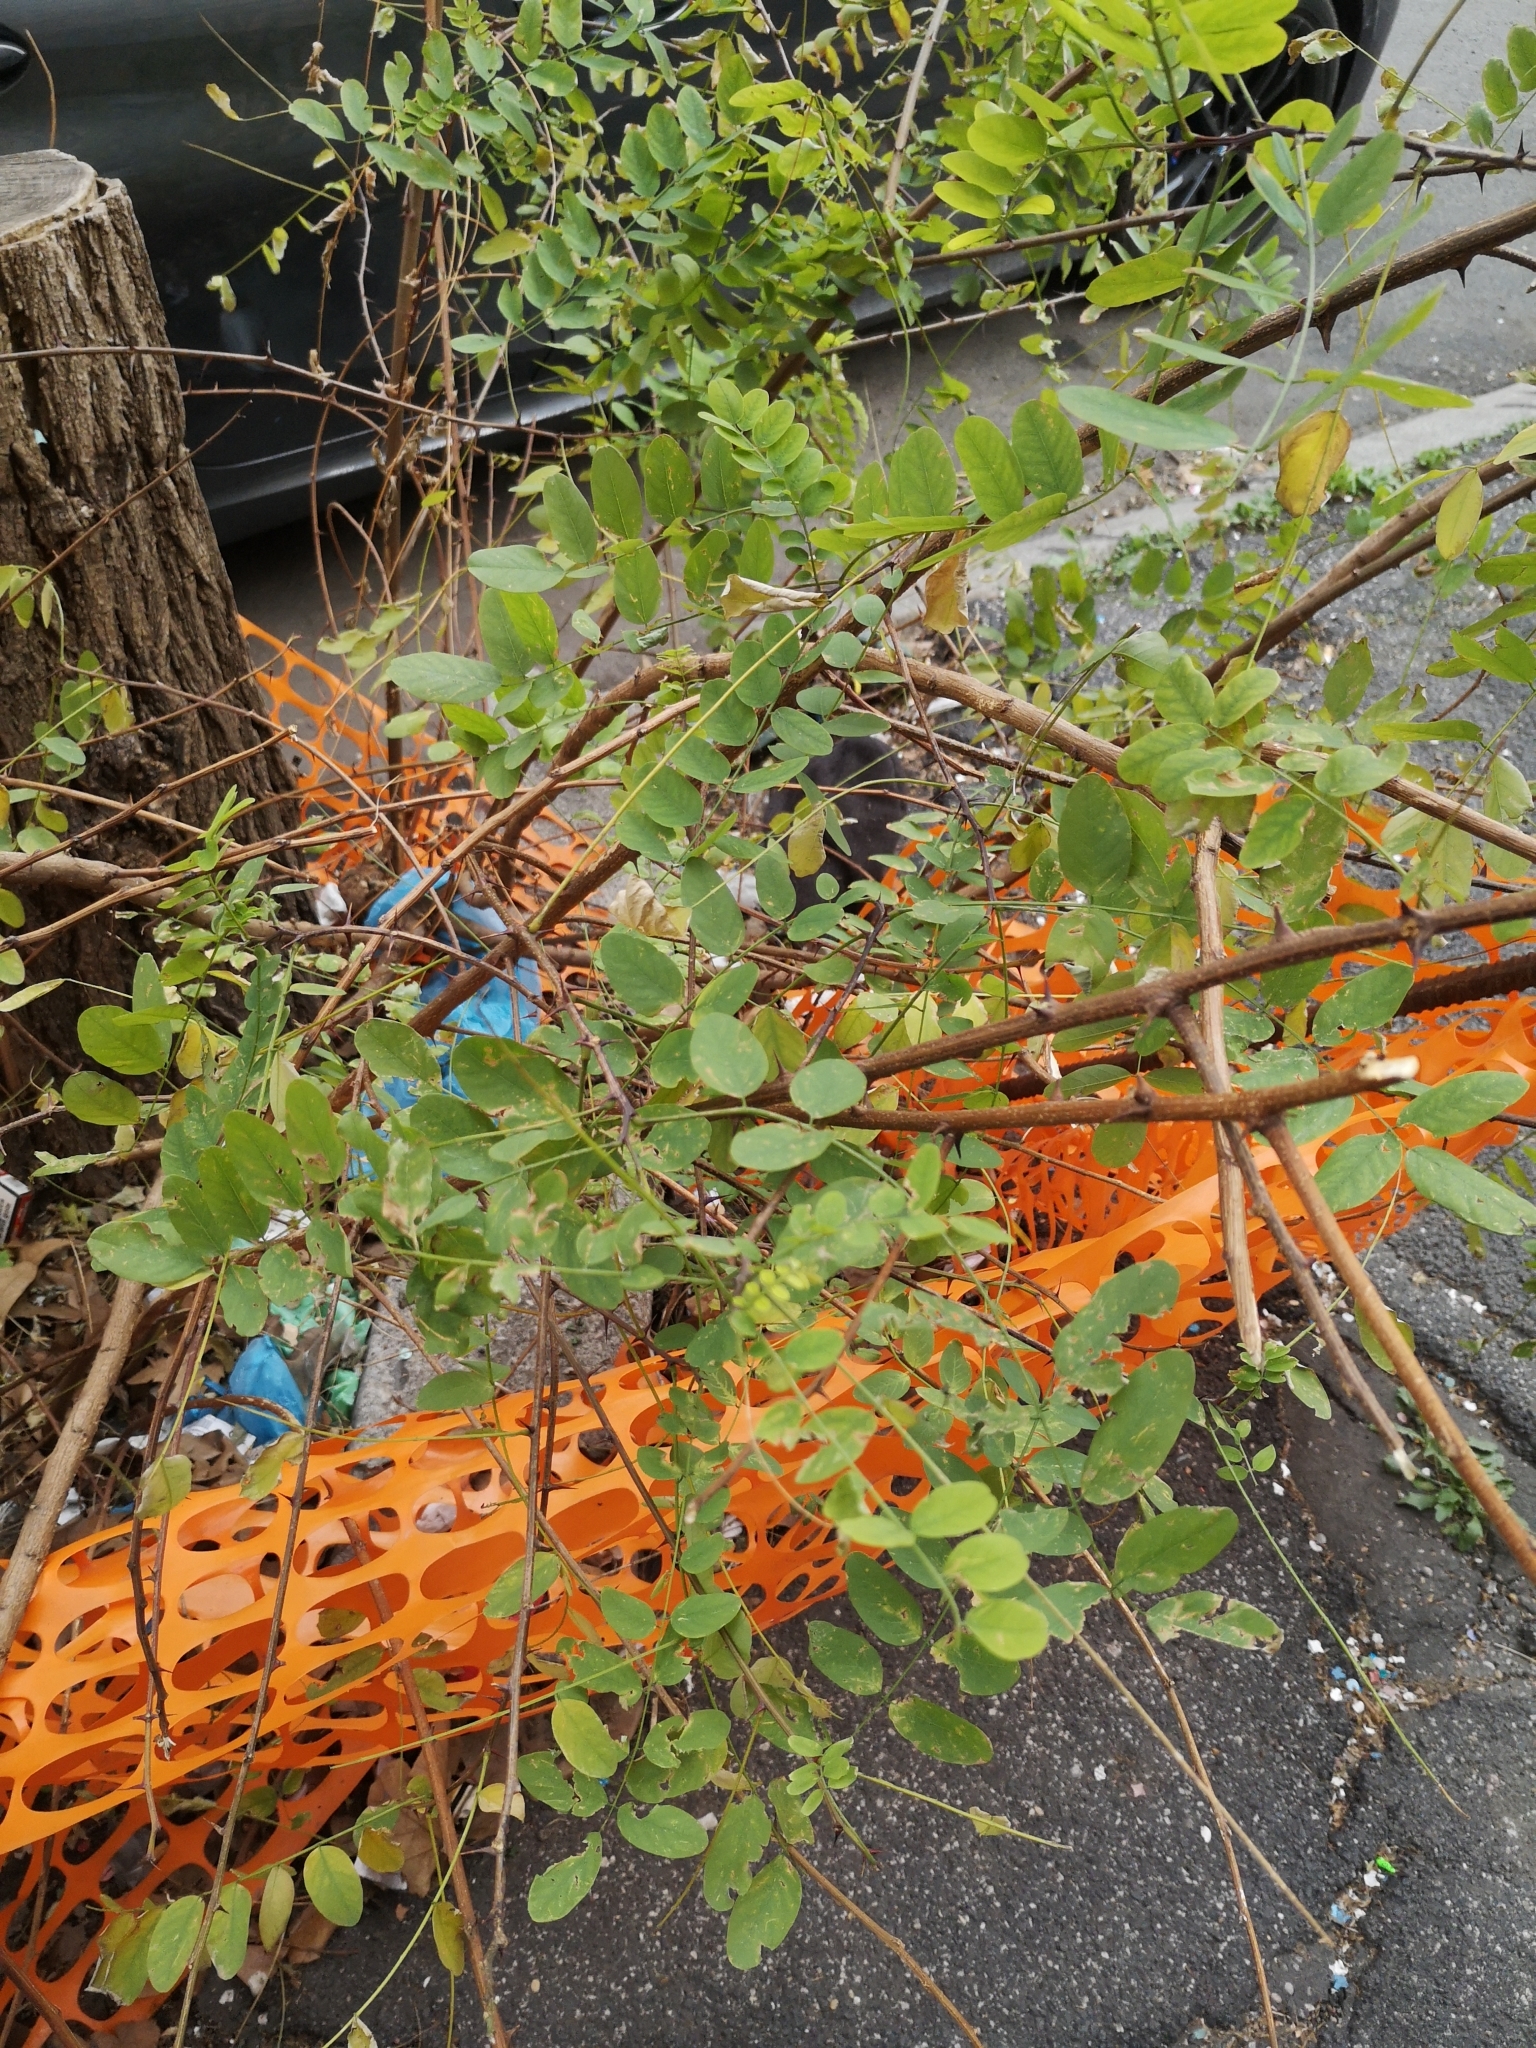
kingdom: Plantae
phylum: Tracheophyta
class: Magnoliopsida
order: Fabales
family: Fabaceae
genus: Robinia
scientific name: Robinia pseudoacacia
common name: Black locust
